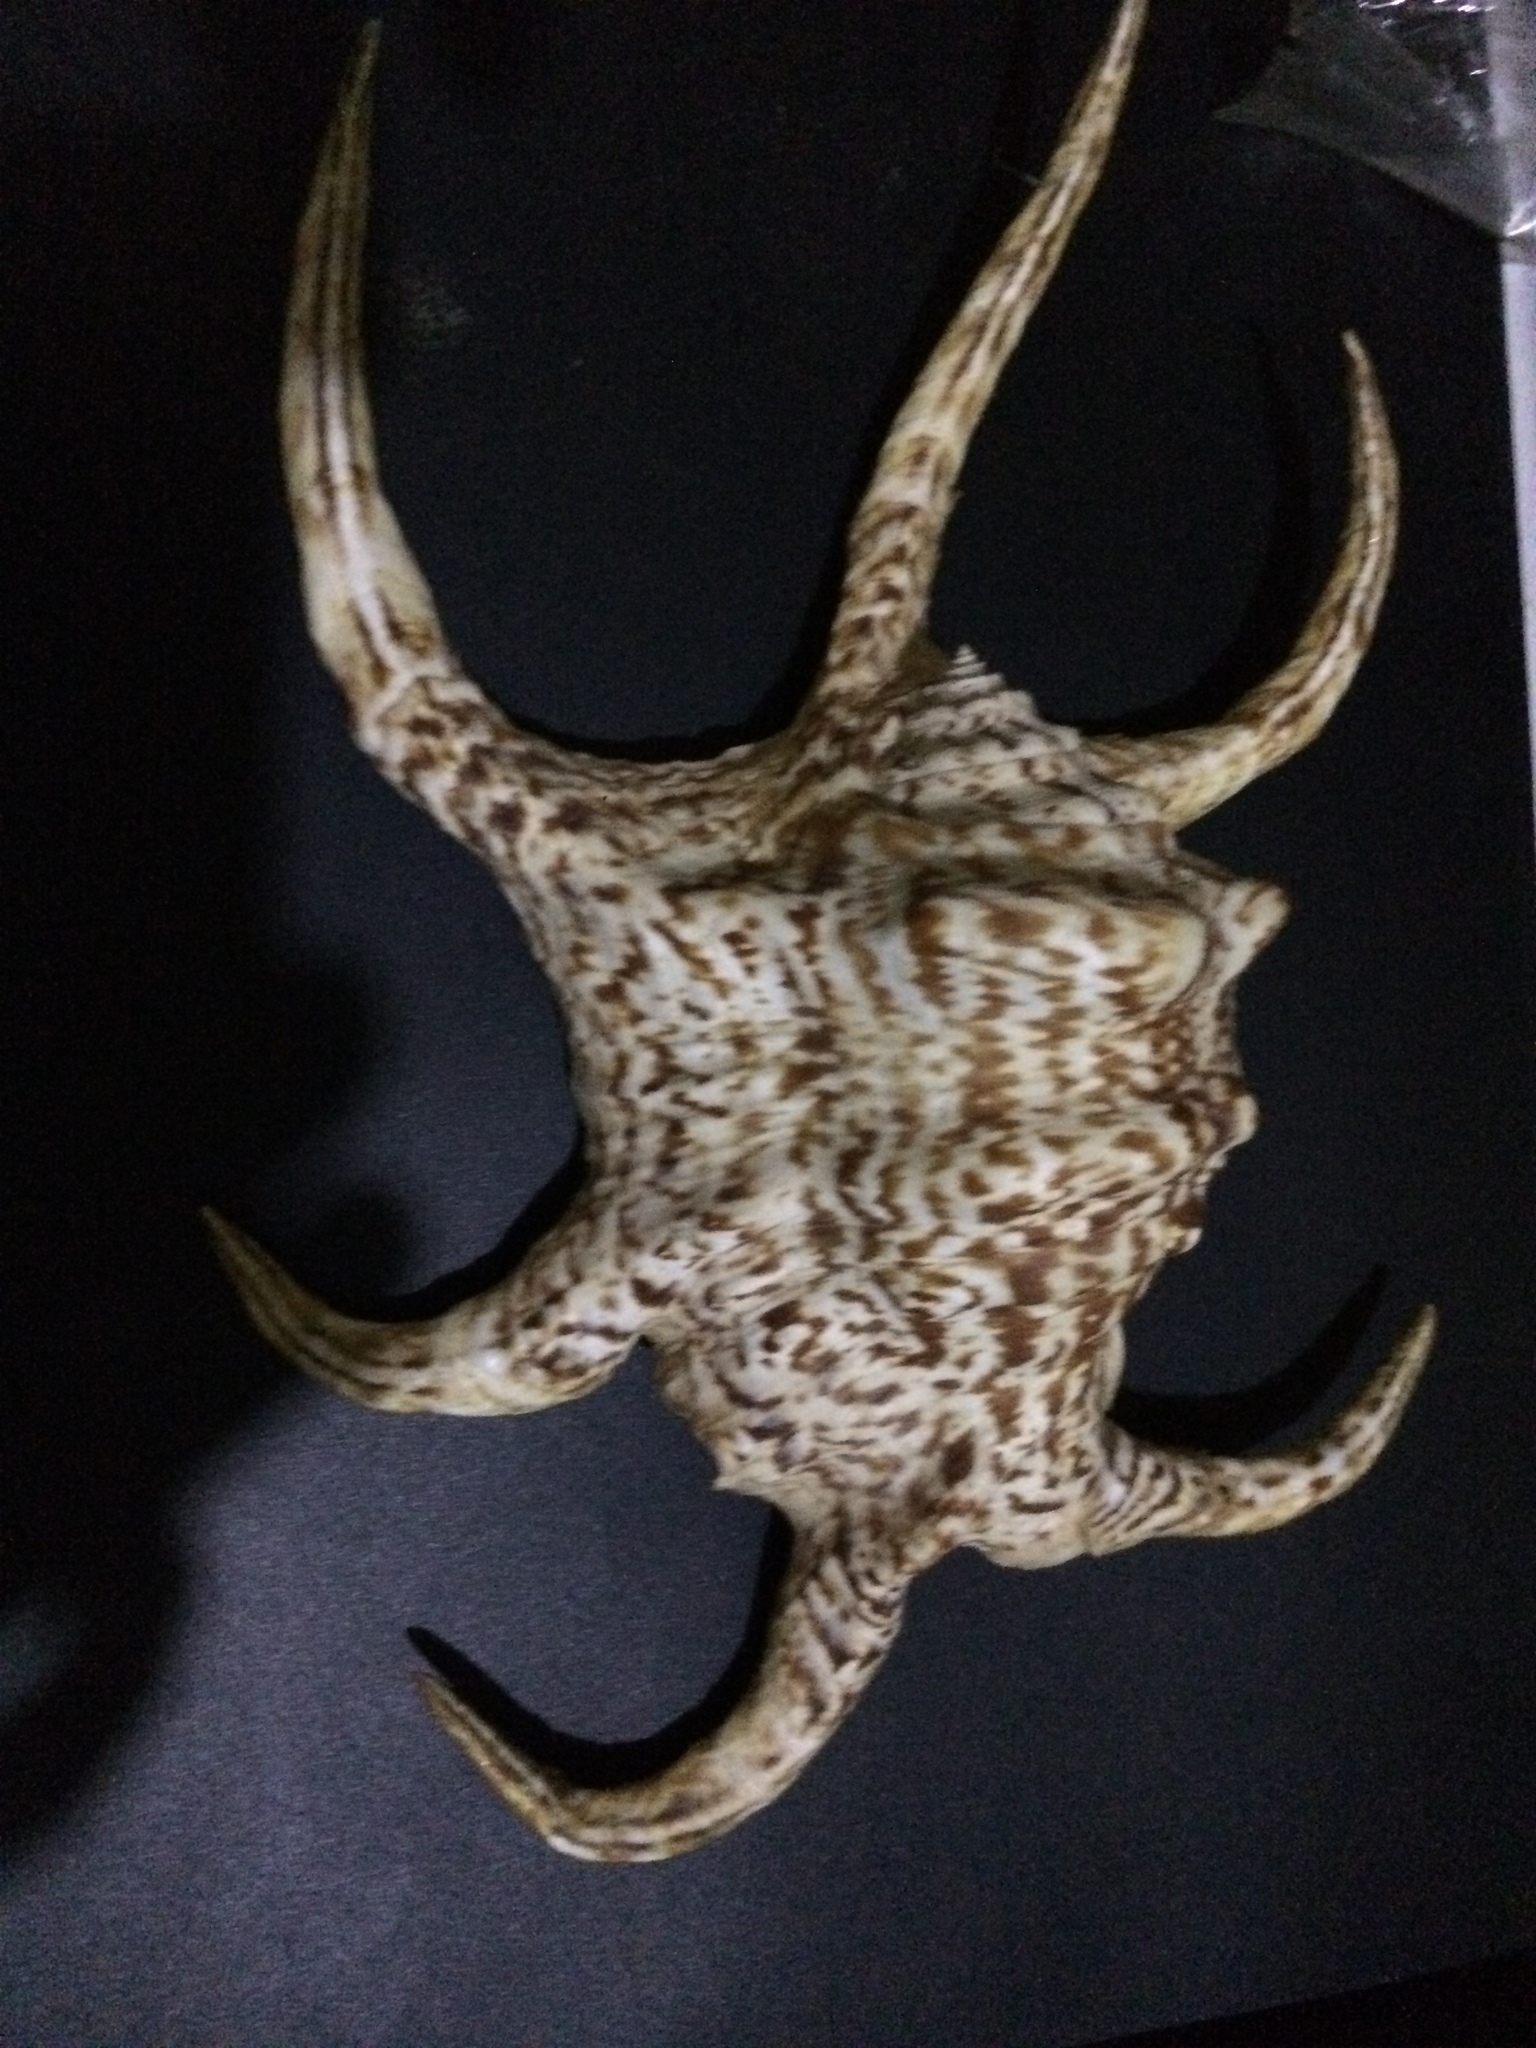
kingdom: Animalia
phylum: Mollusca
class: Gastropoda
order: Littorinimorpha
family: Strombidae
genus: Harpago
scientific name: Harpago chiragra
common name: Chiragra spider conch
